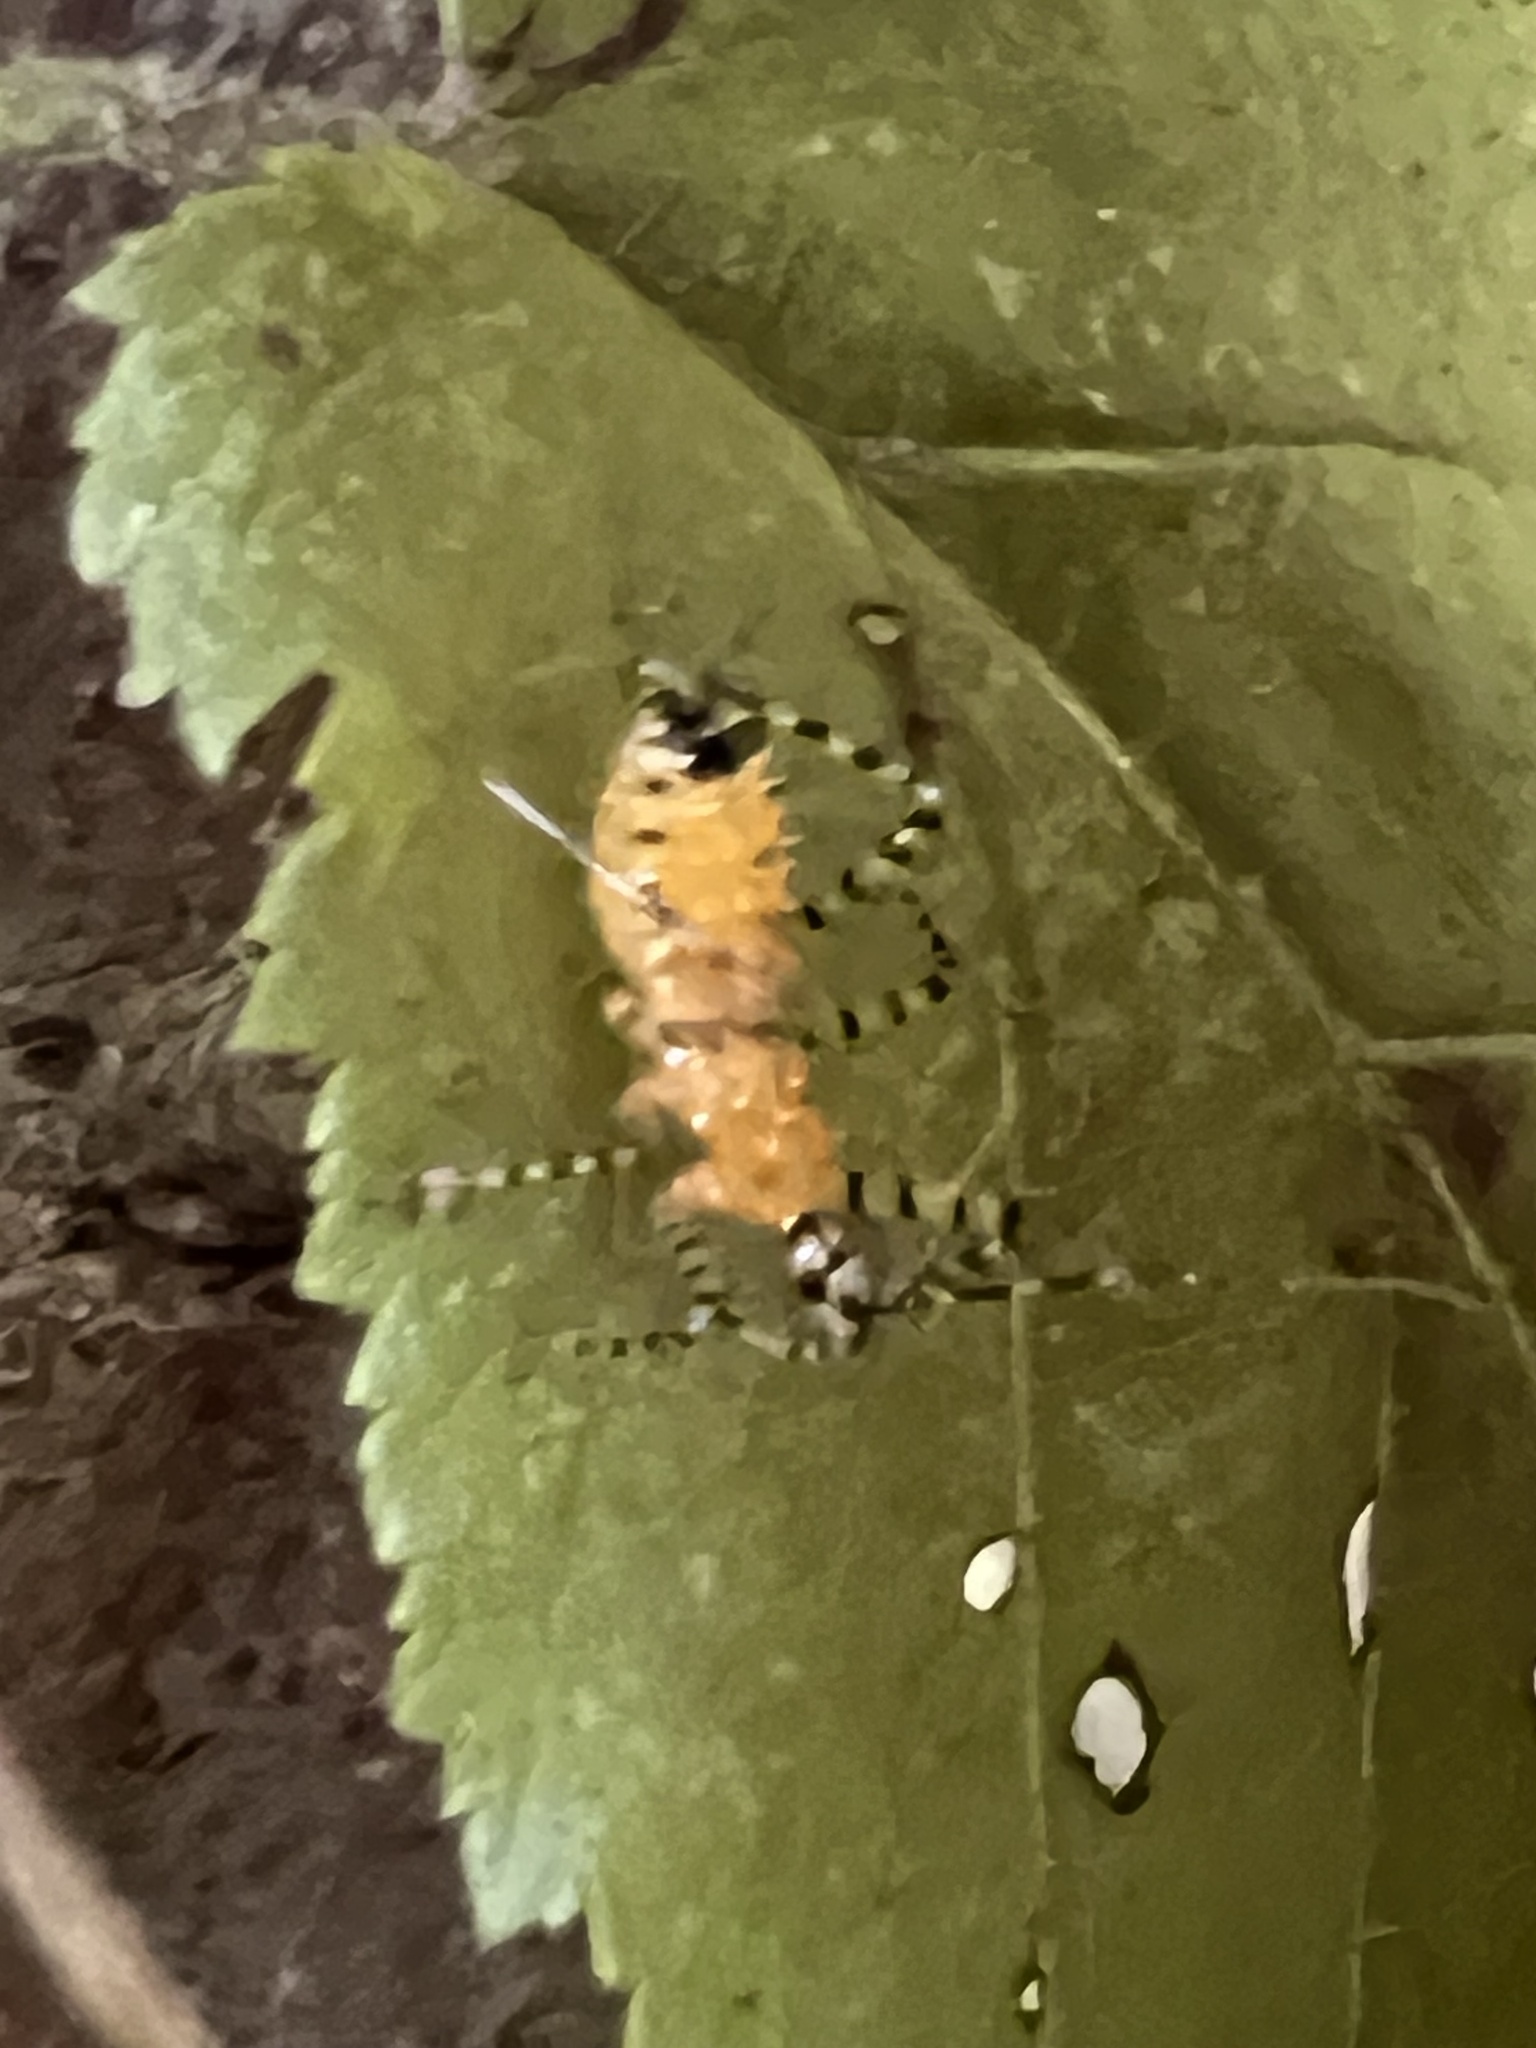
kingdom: Animalia
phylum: Arthropoda
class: Insecta
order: Hemiptera
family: Reduviidae
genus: Pselliopus
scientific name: Pselliopus barberi
